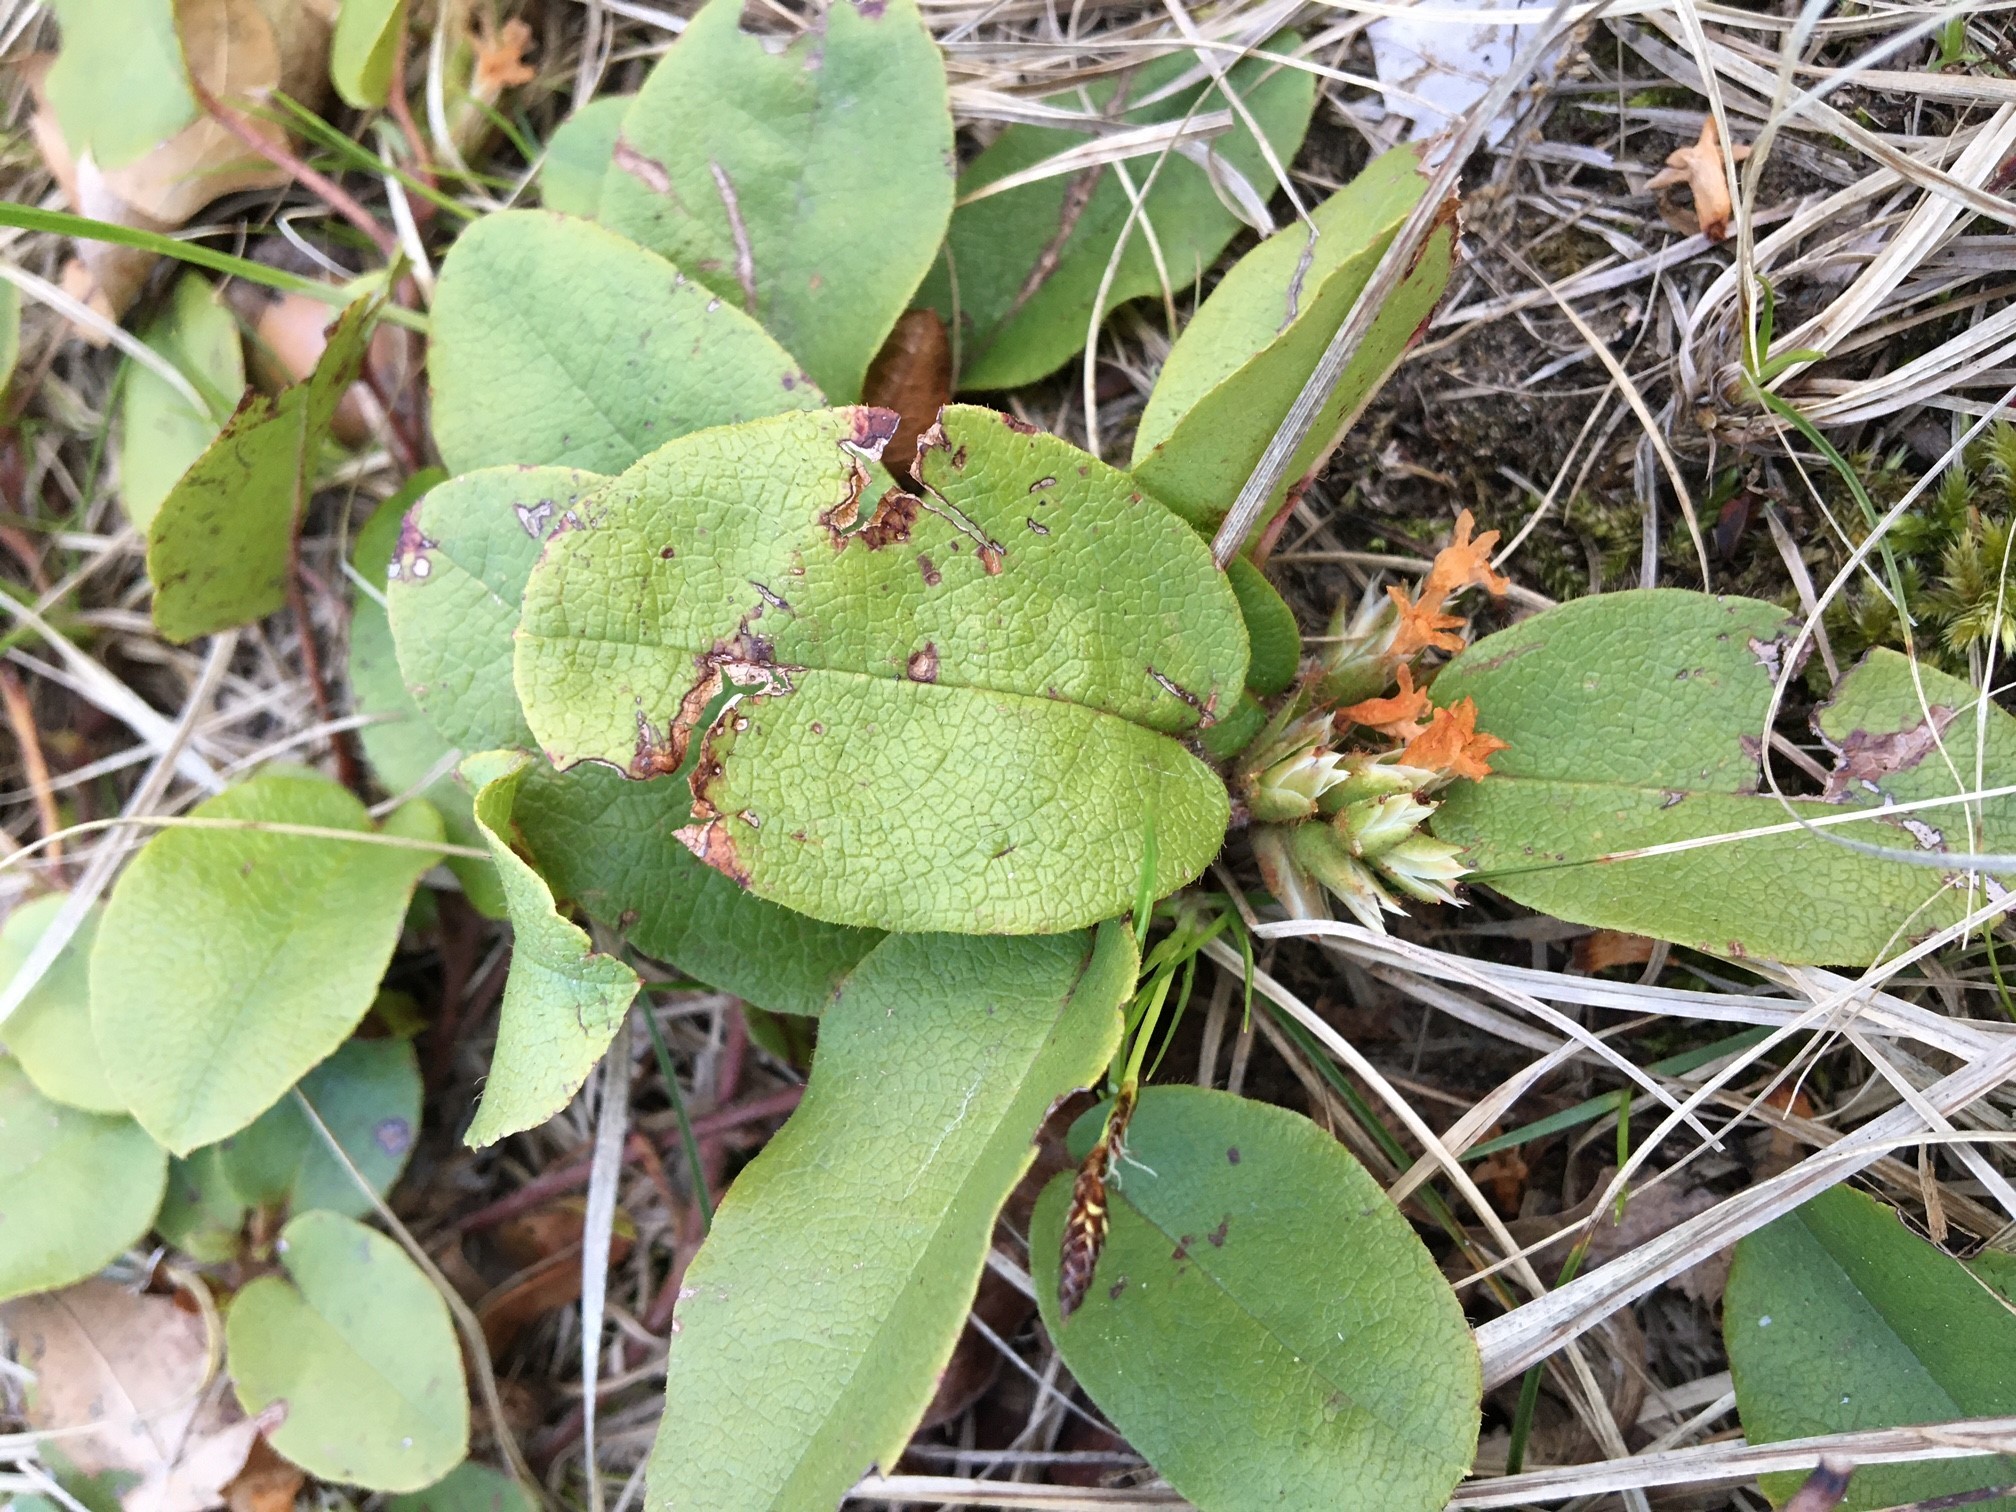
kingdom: Plantae
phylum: Tracheophyta
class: Magnoliopsida
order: Ericales
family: Ericaceae
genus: Epigaea
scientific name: Epigaea repens
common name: Gravelroot
